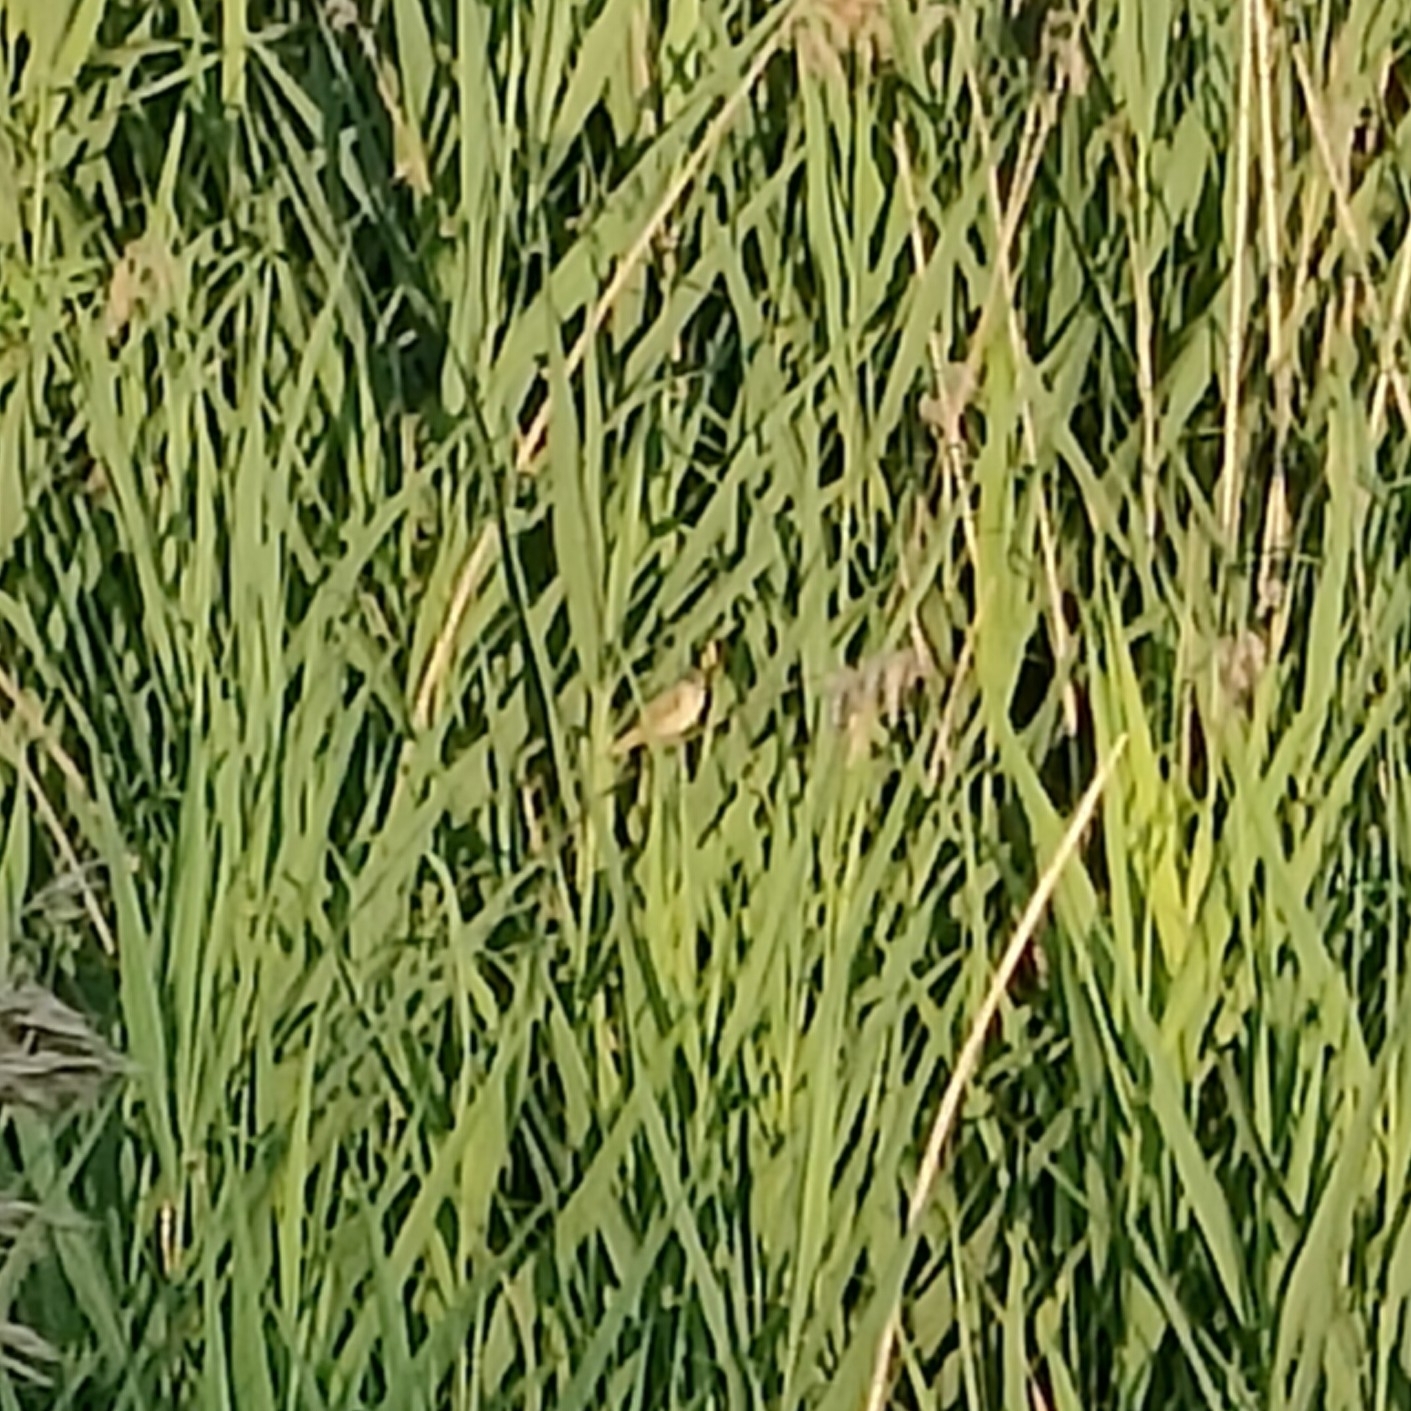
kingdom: Animalia
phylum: Chordata
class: Aves
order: Passeriformes
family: Acrocephalidae
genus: Acrocephalus
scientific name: Acrocephalus palustris
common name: Marsh warbler
